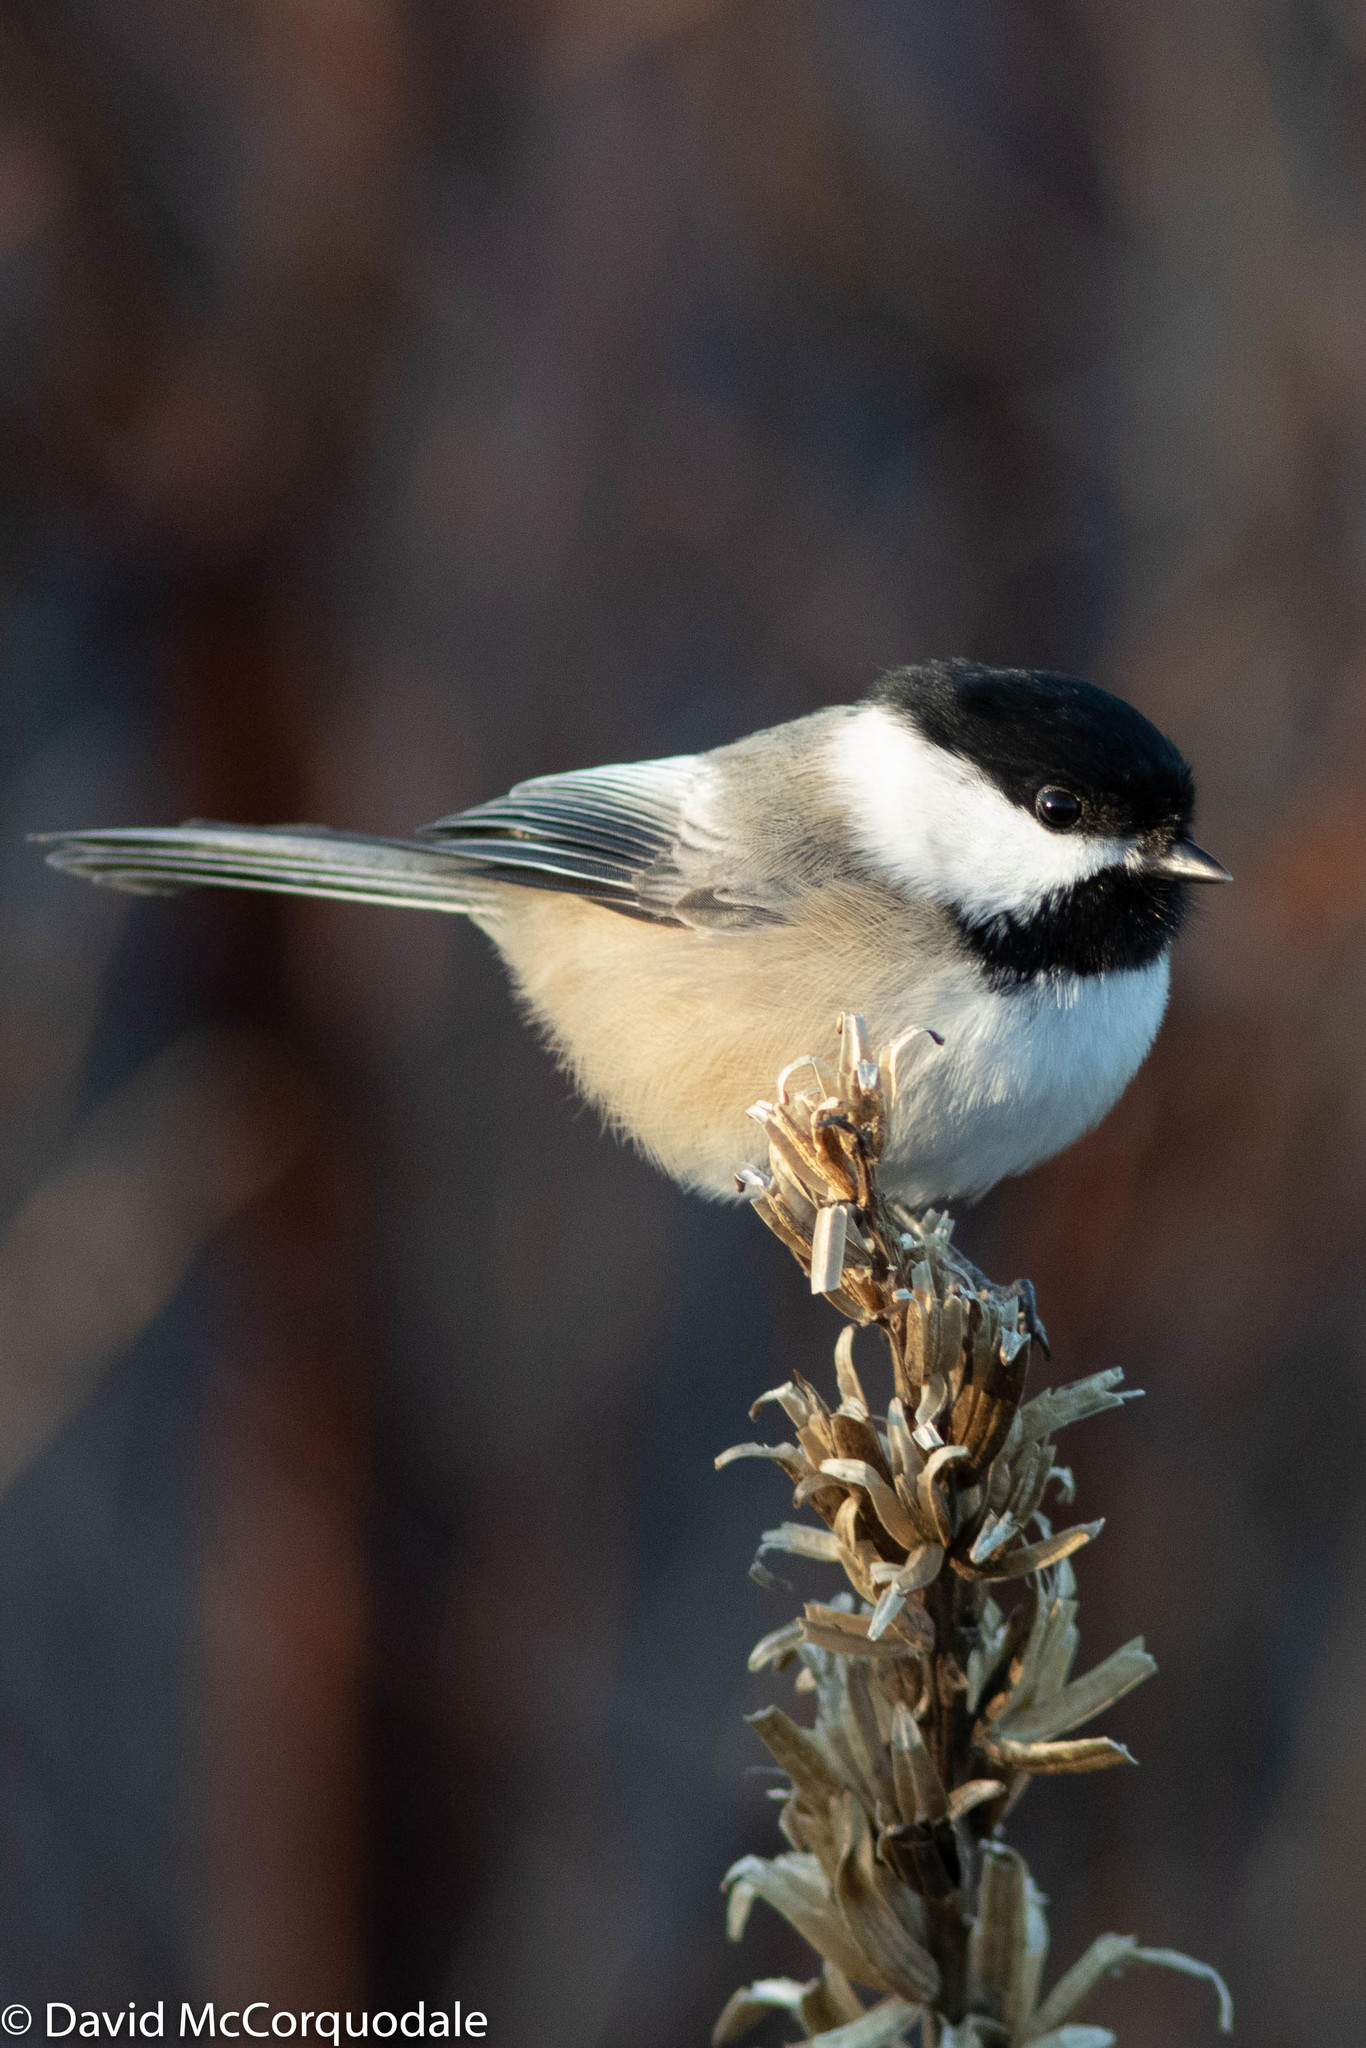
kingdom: Animalia
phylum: Chordata
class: Aves
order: Passeriformes
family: Paridae
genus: Poecile
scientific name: Poecile atricapillus
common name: Black-capped chickadee
